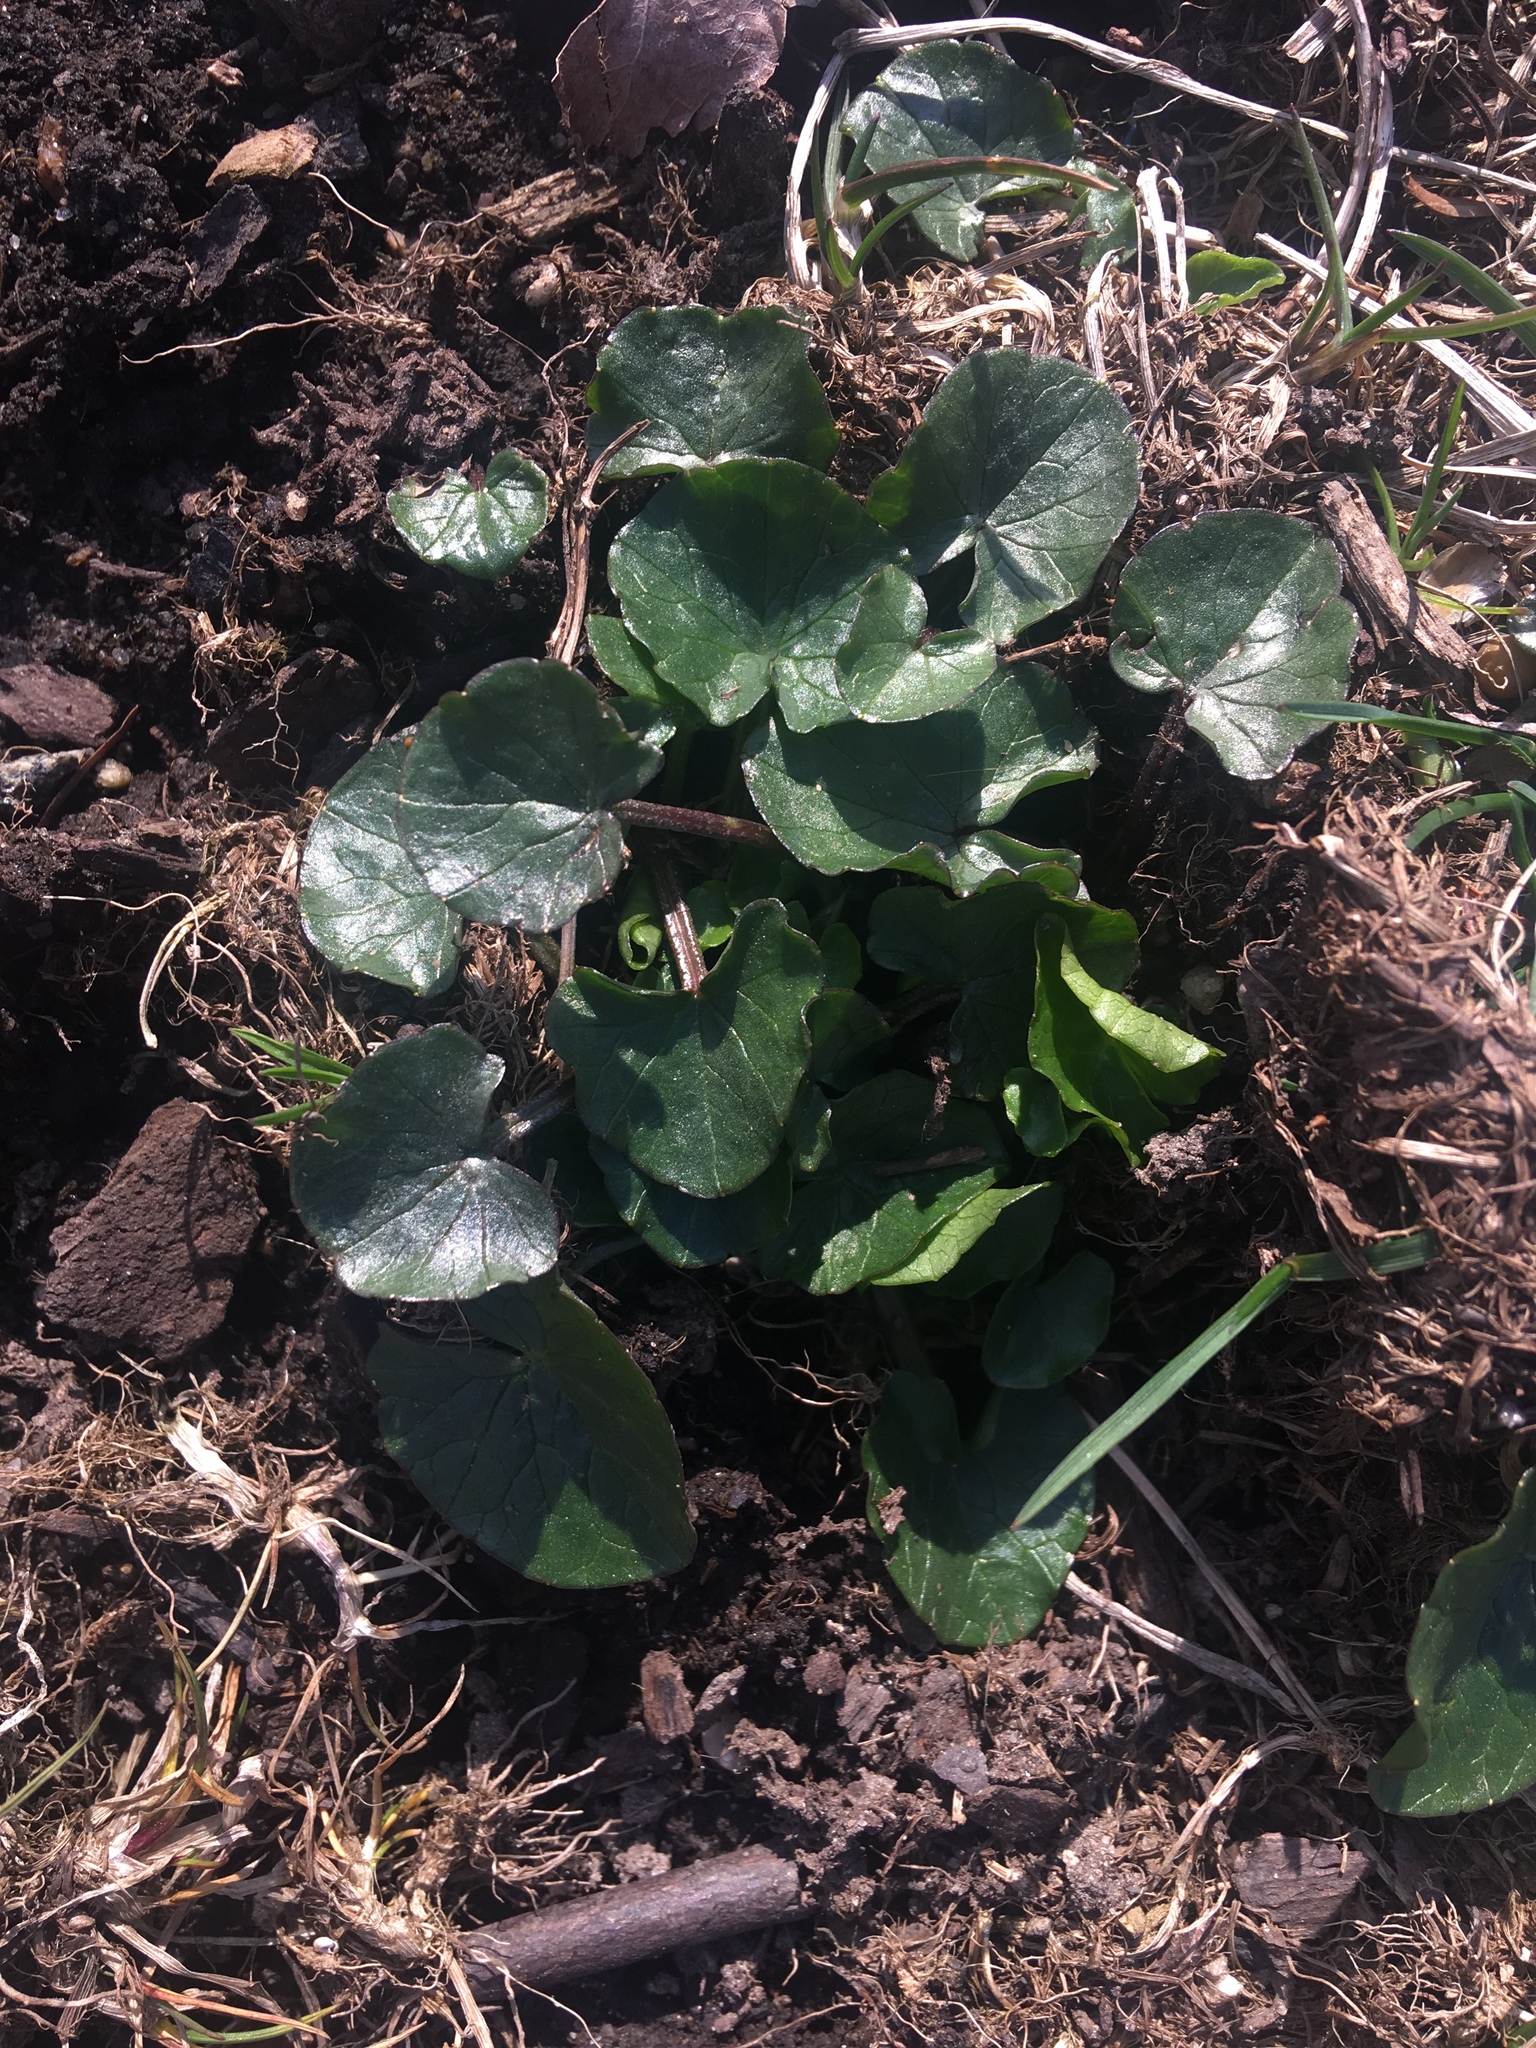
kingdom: Plantae
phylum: Tracheophyta
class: Magnoliopsida
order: Ranunculales
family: Ranunculaceae
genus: Ficaria
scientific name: Ficaria verna
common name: Lesser celandine
